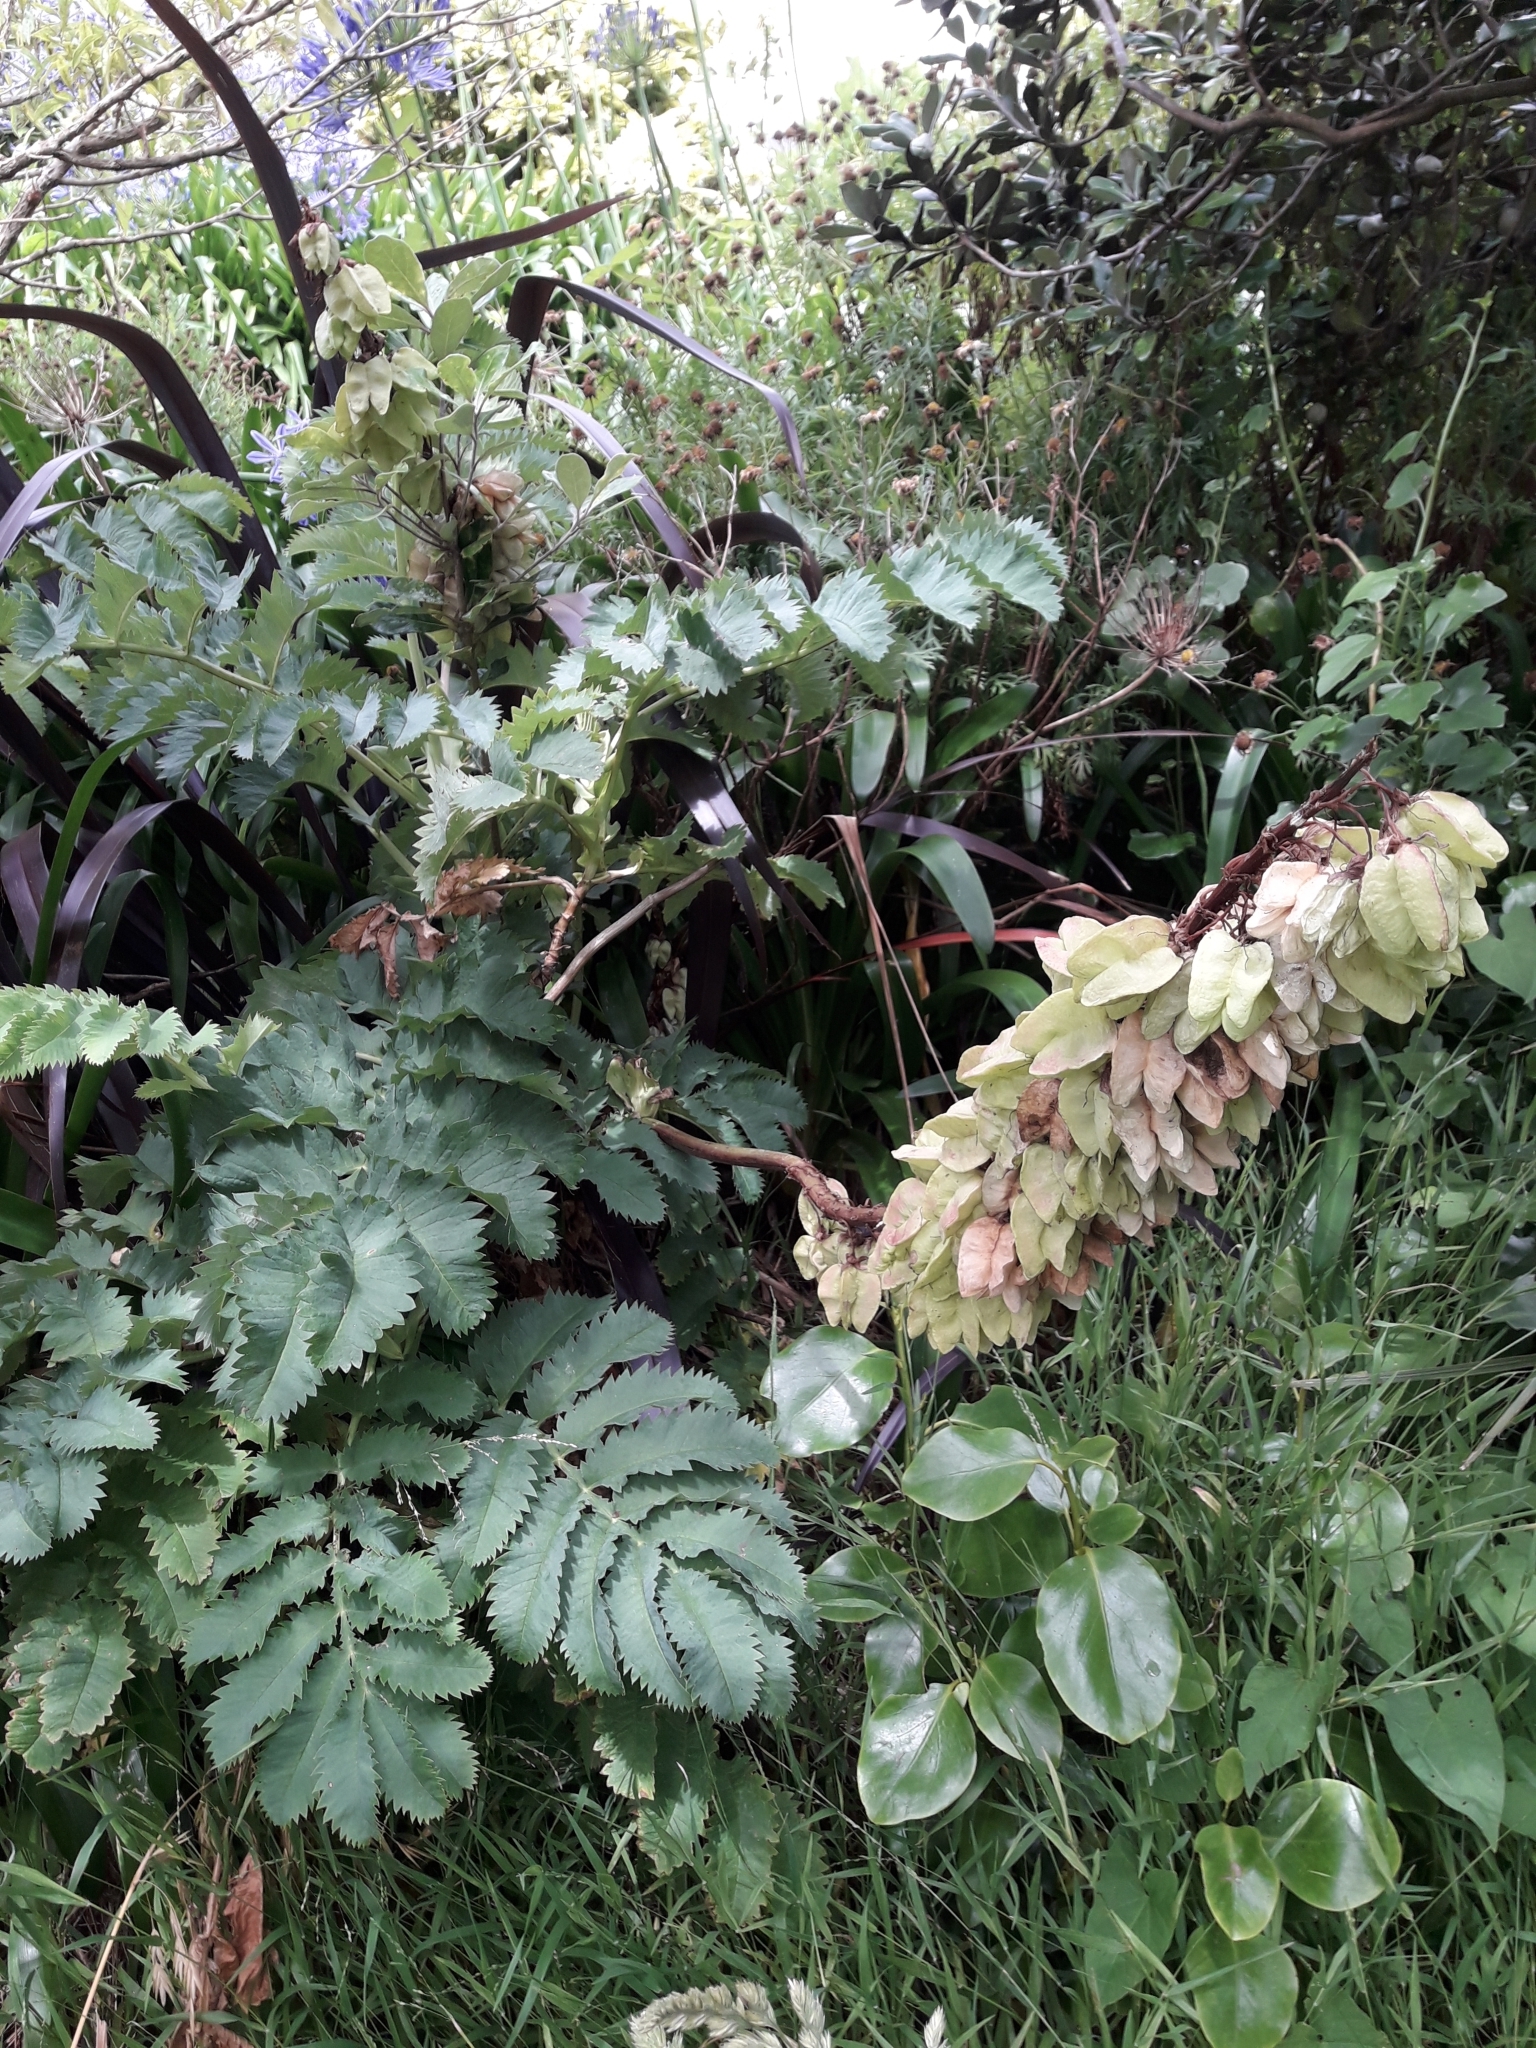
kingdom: Plantae
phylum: Tracheophyta
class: Magnoliopsida
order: Geraniales
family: Melianthaceae
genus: Melianthus
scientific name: Melianthus major
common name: Honey-flower
